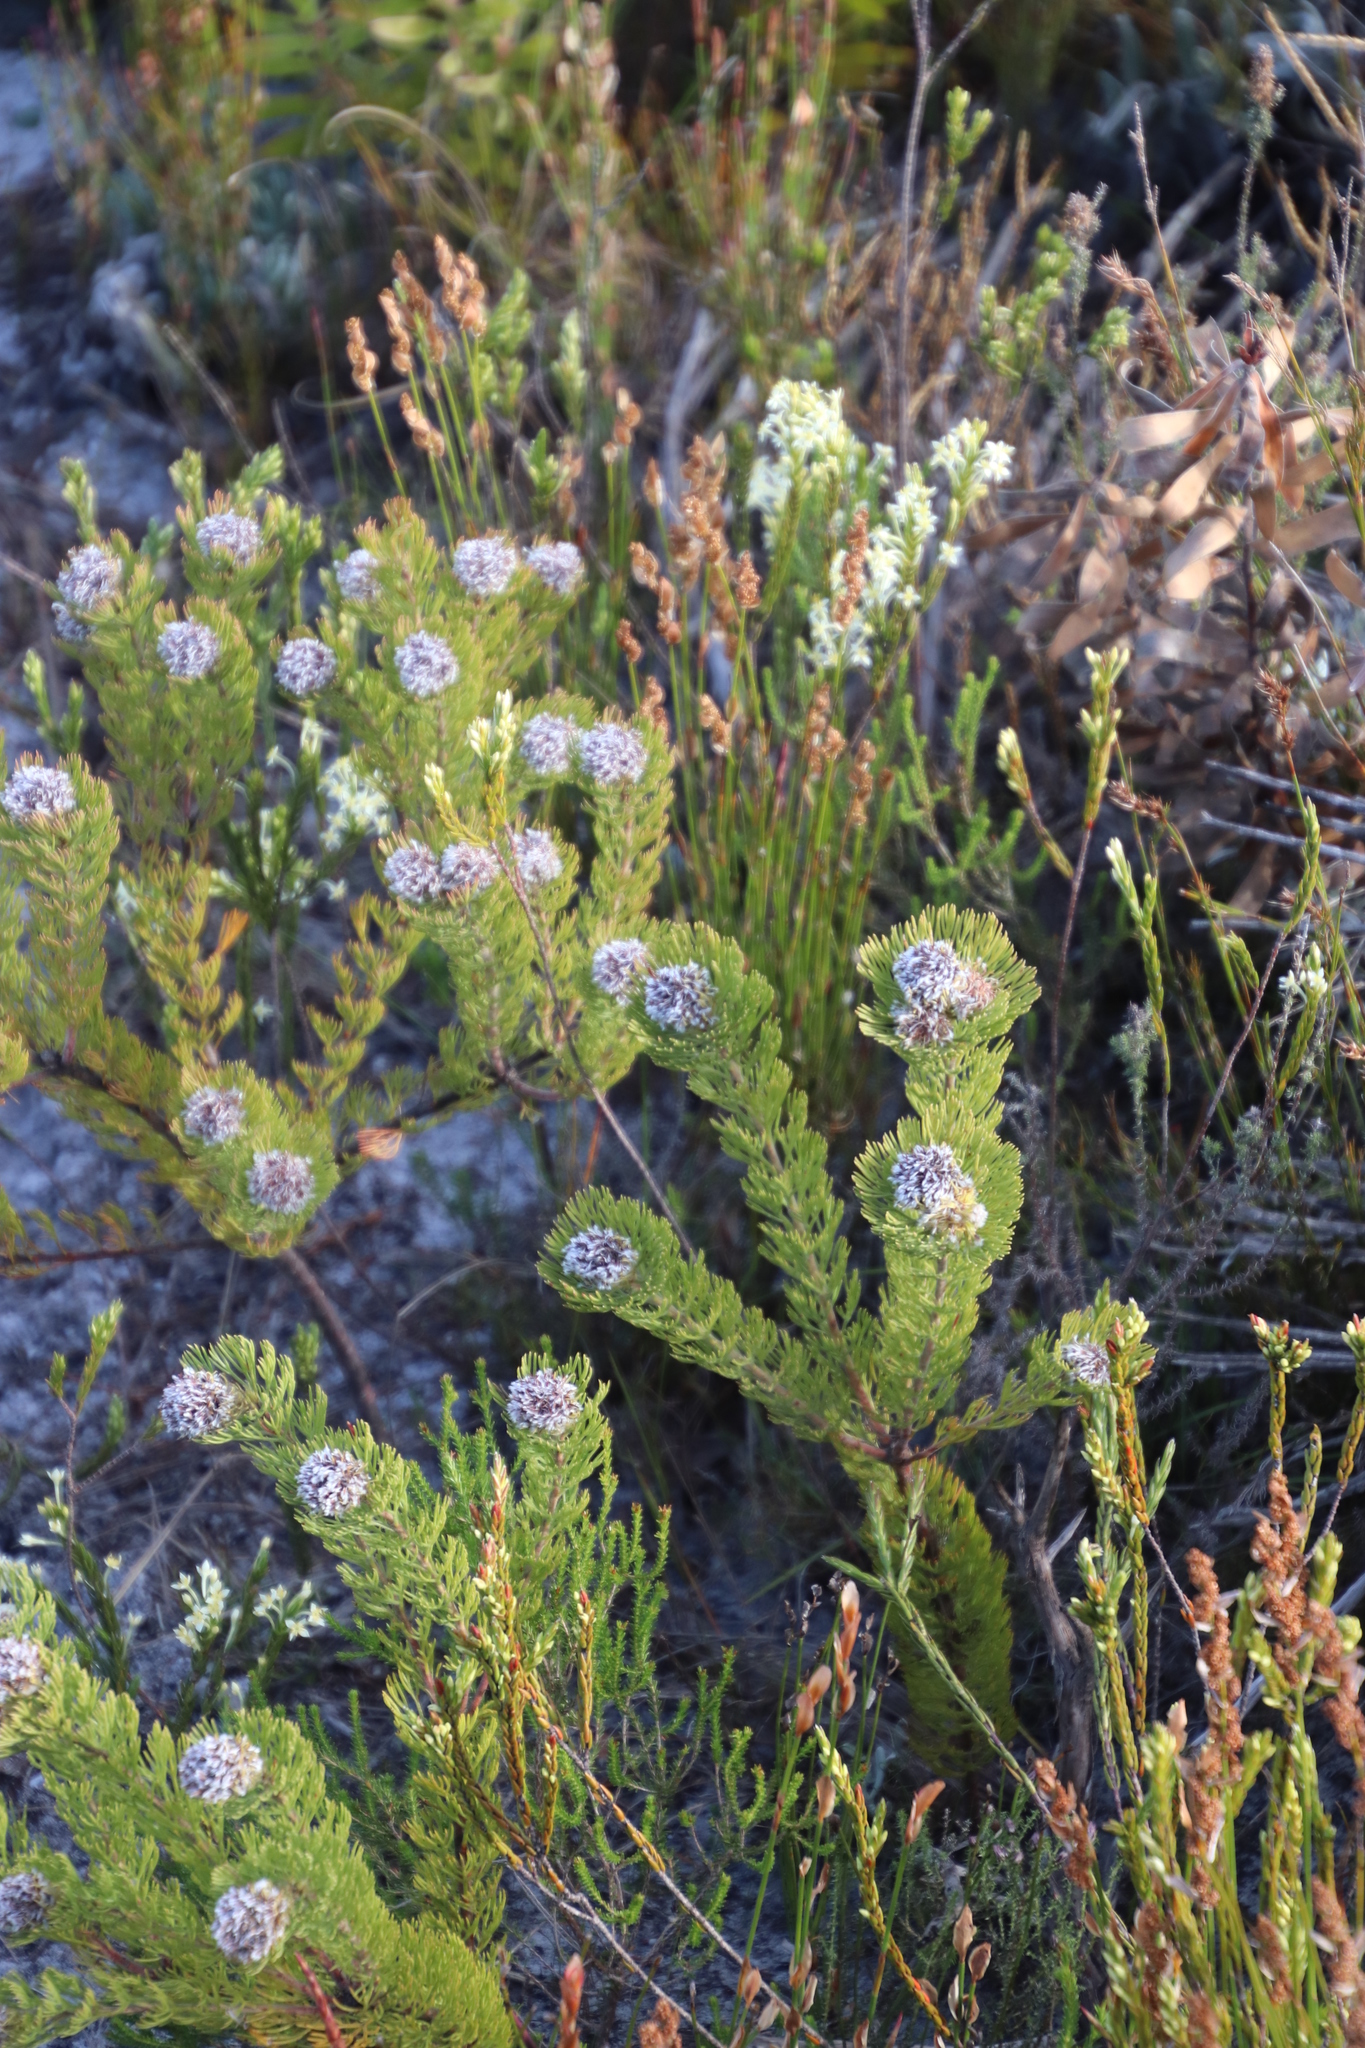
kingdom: Plantae
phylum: Tracheophyta
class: Magnoliopsida
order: Proteales
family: Proteaceae
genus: Serruria
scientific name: Serruria villosa
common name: Golden spiderhead
